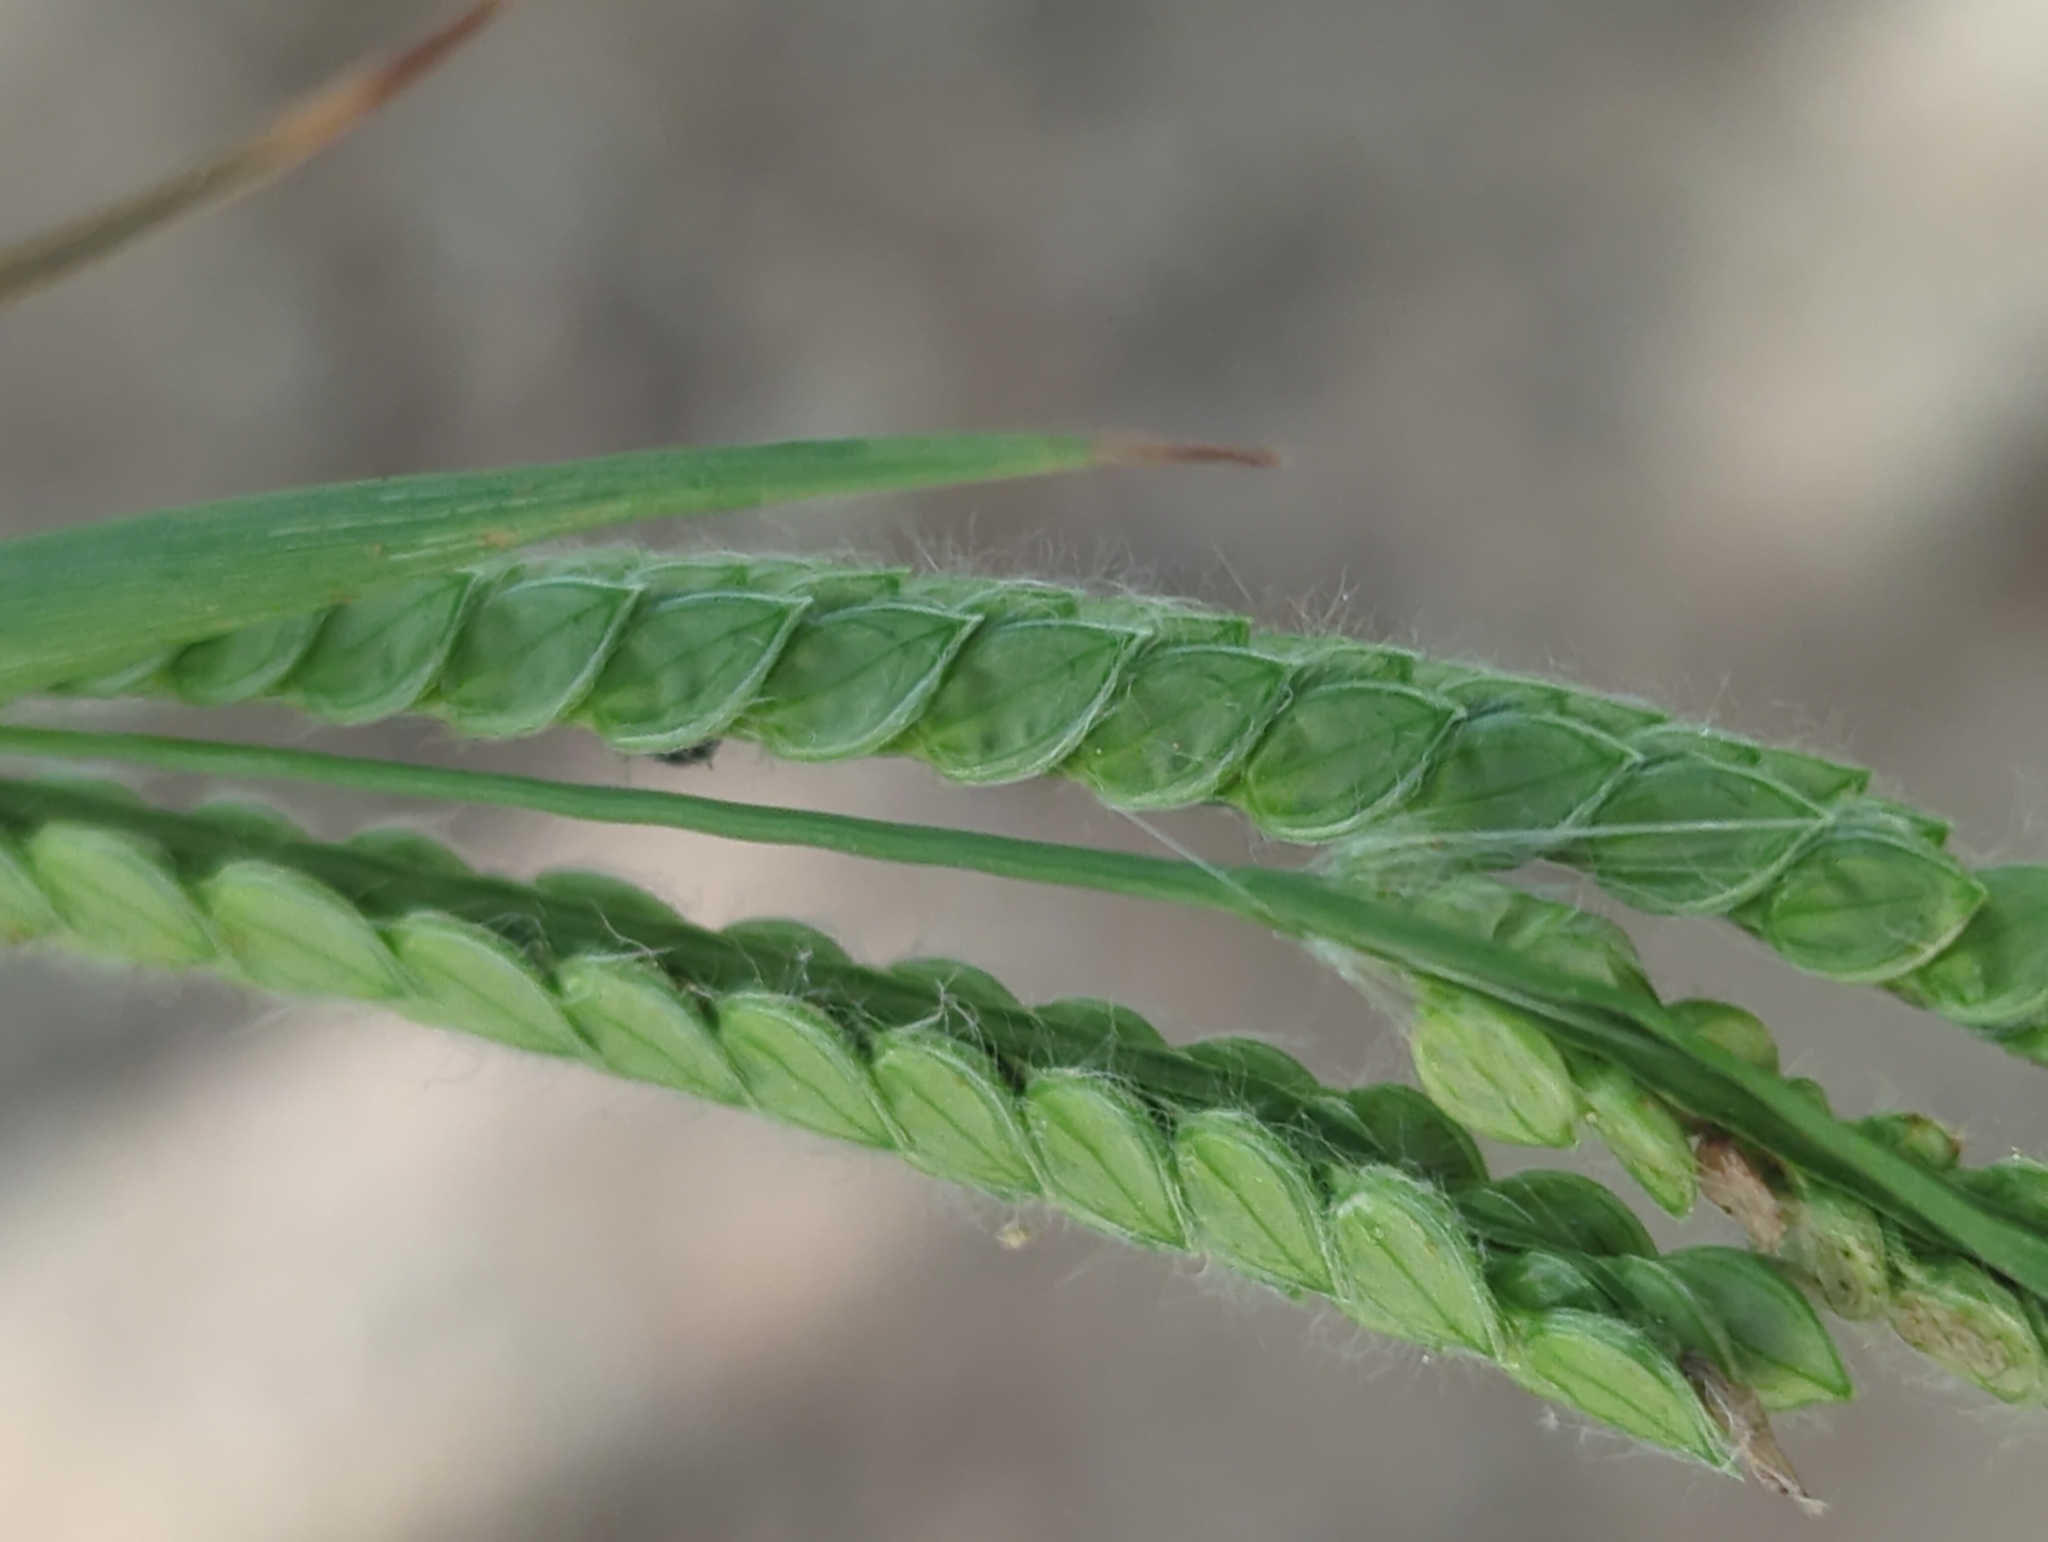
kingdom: Plantae
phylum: Tracheophyta
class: Liliopsida
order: Poales
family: Poaceae
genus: Paspalum
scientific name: Paspalum dilatatum
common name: Dallisgrass
